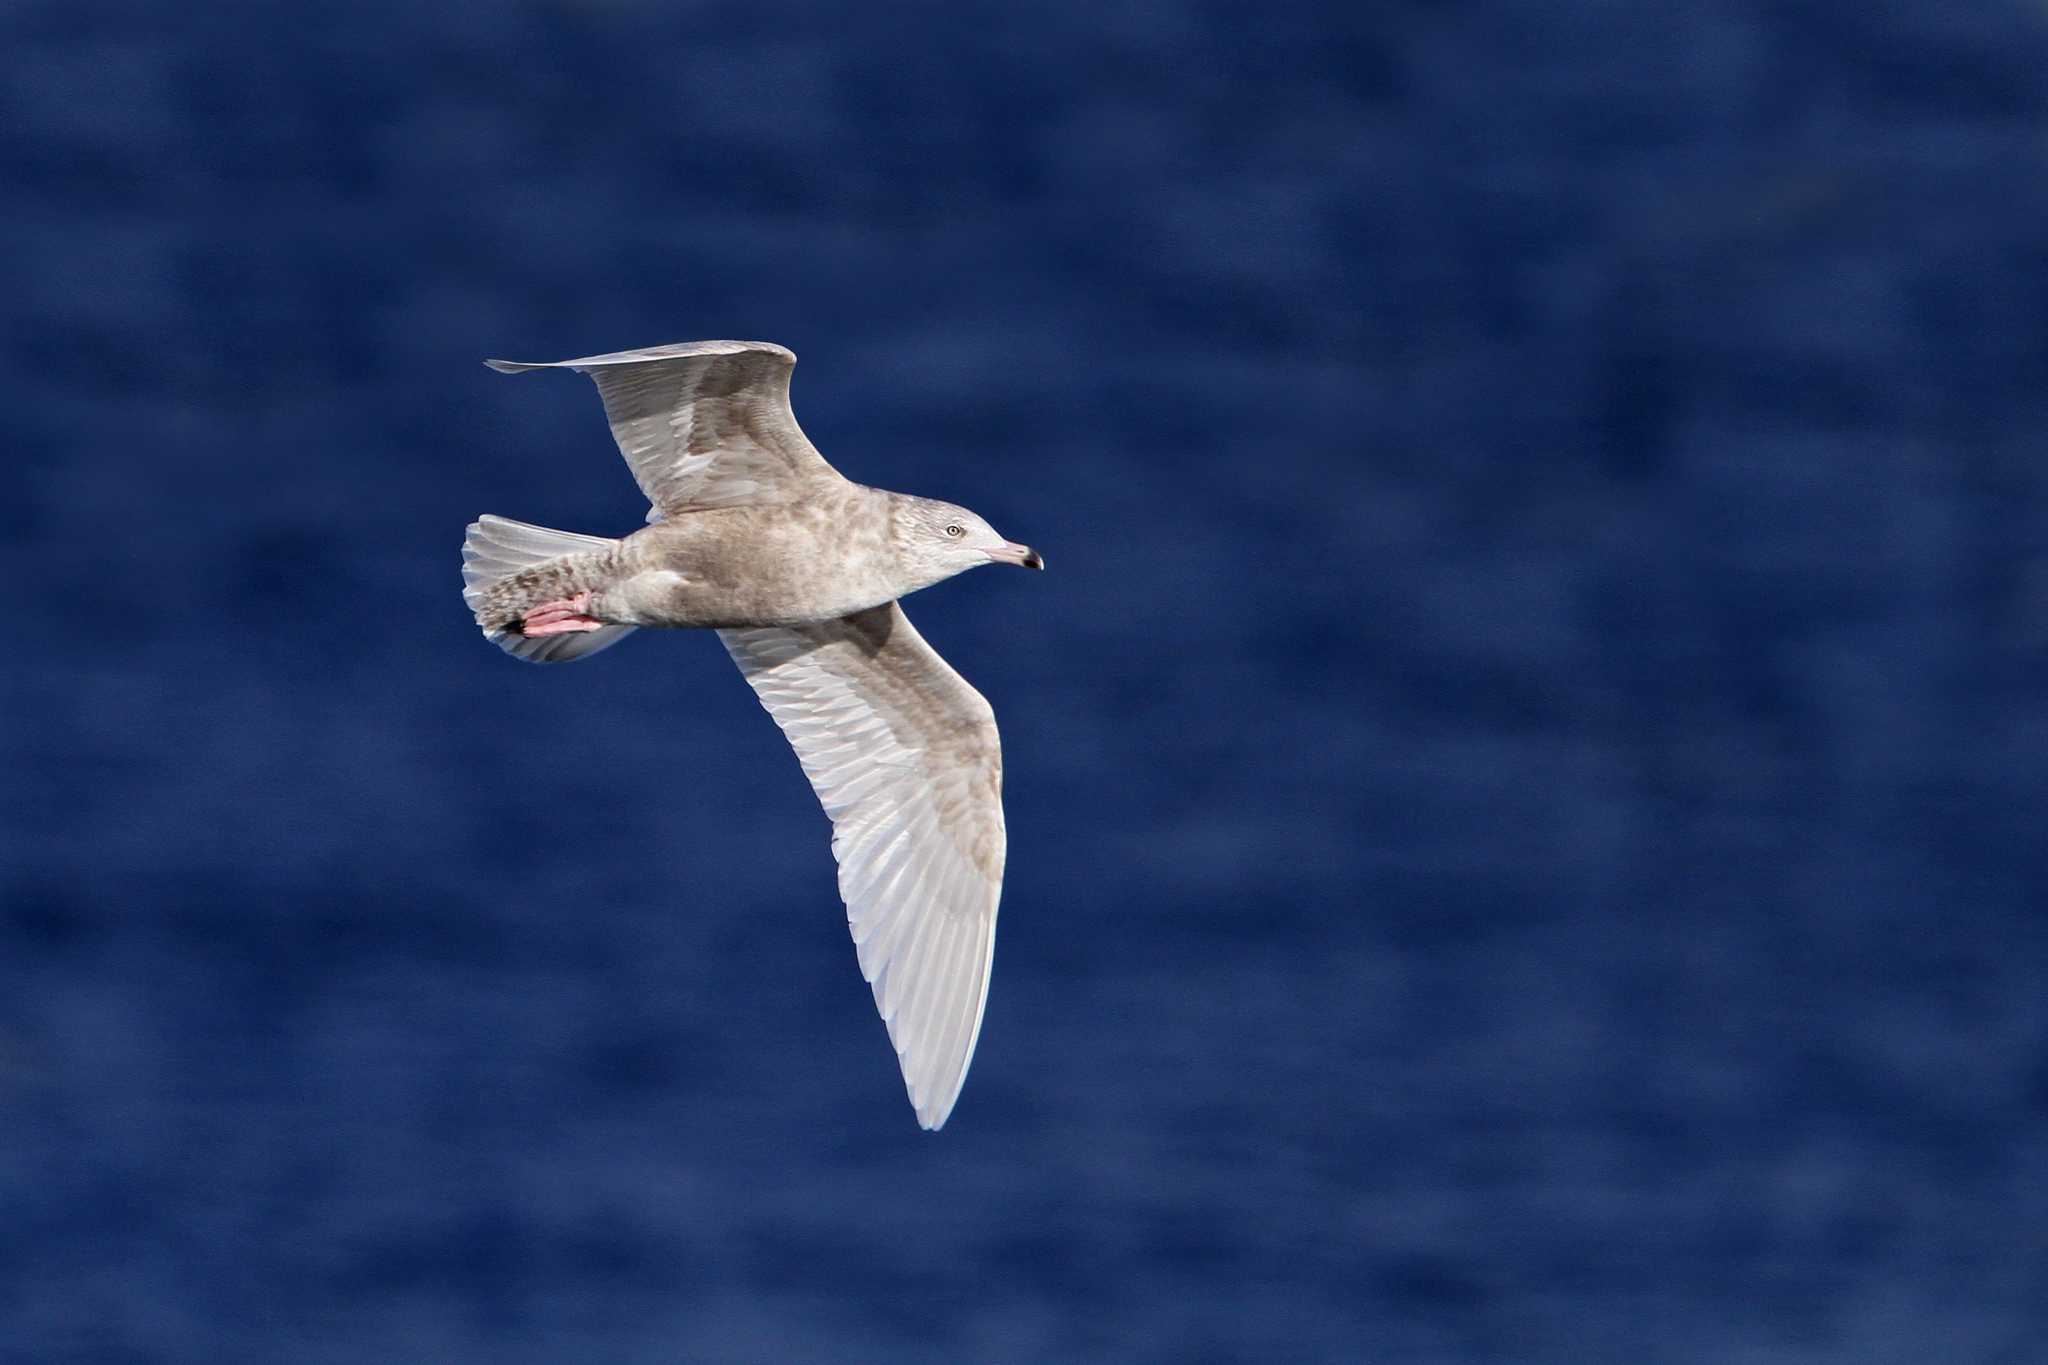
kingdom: Animalia
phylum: Chordata
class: Aves
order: Charadriiformes
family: Laridae
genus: Larus
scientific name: Larus hyperboreus
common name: Glaucous gull
